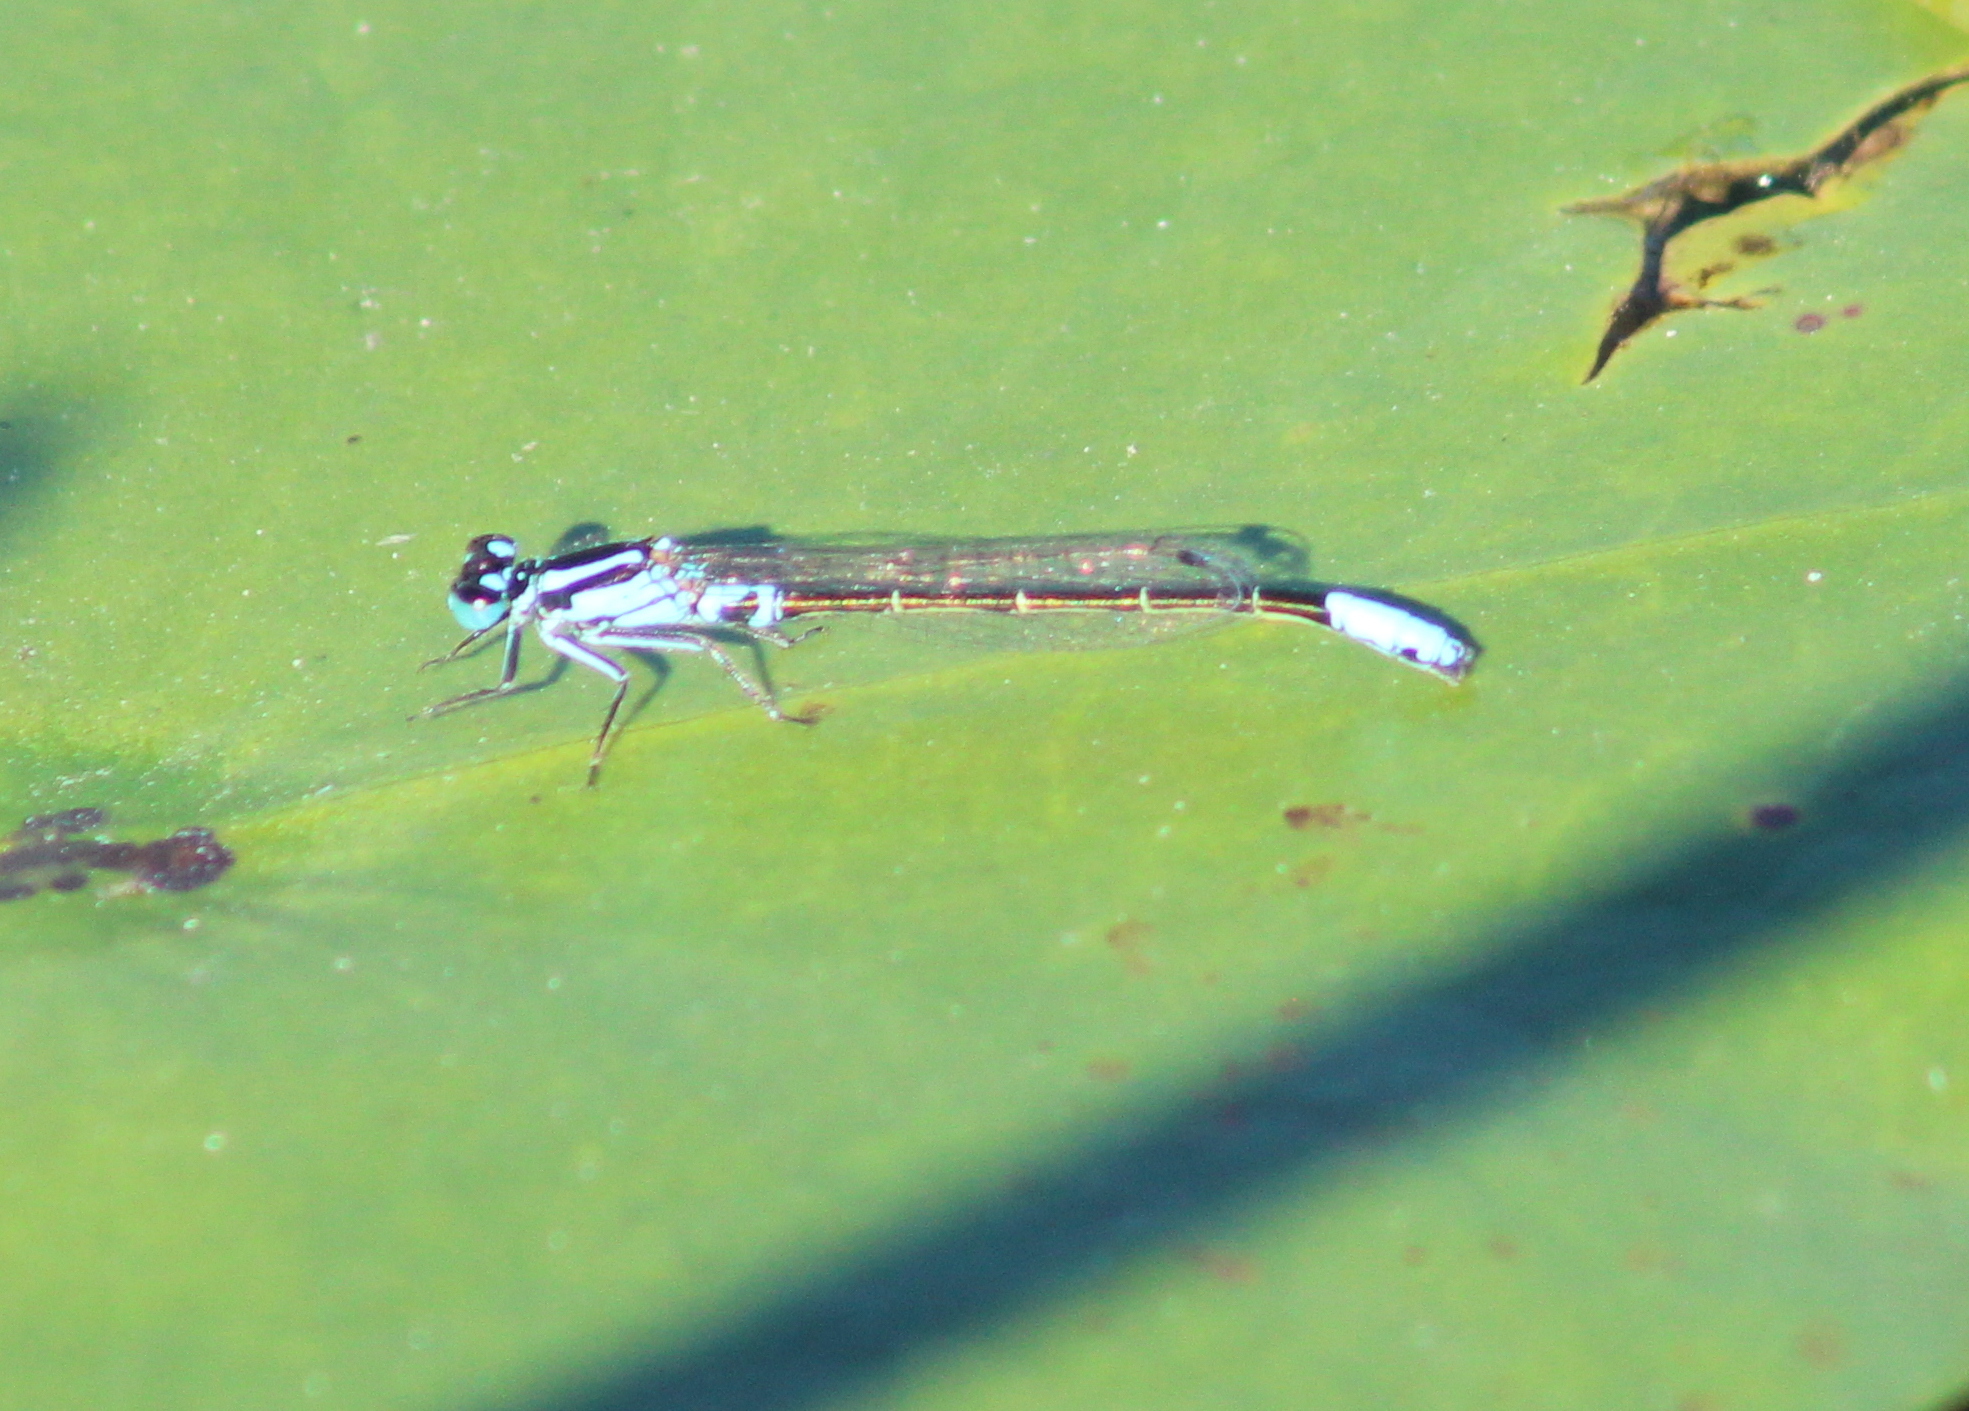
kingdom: Animalia
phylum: Arthropoda
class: Insecta
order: Odonata
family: Coenagrionidae
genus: Ischnura
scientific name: Ischnura kellicotti
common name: Lilypad forktail
